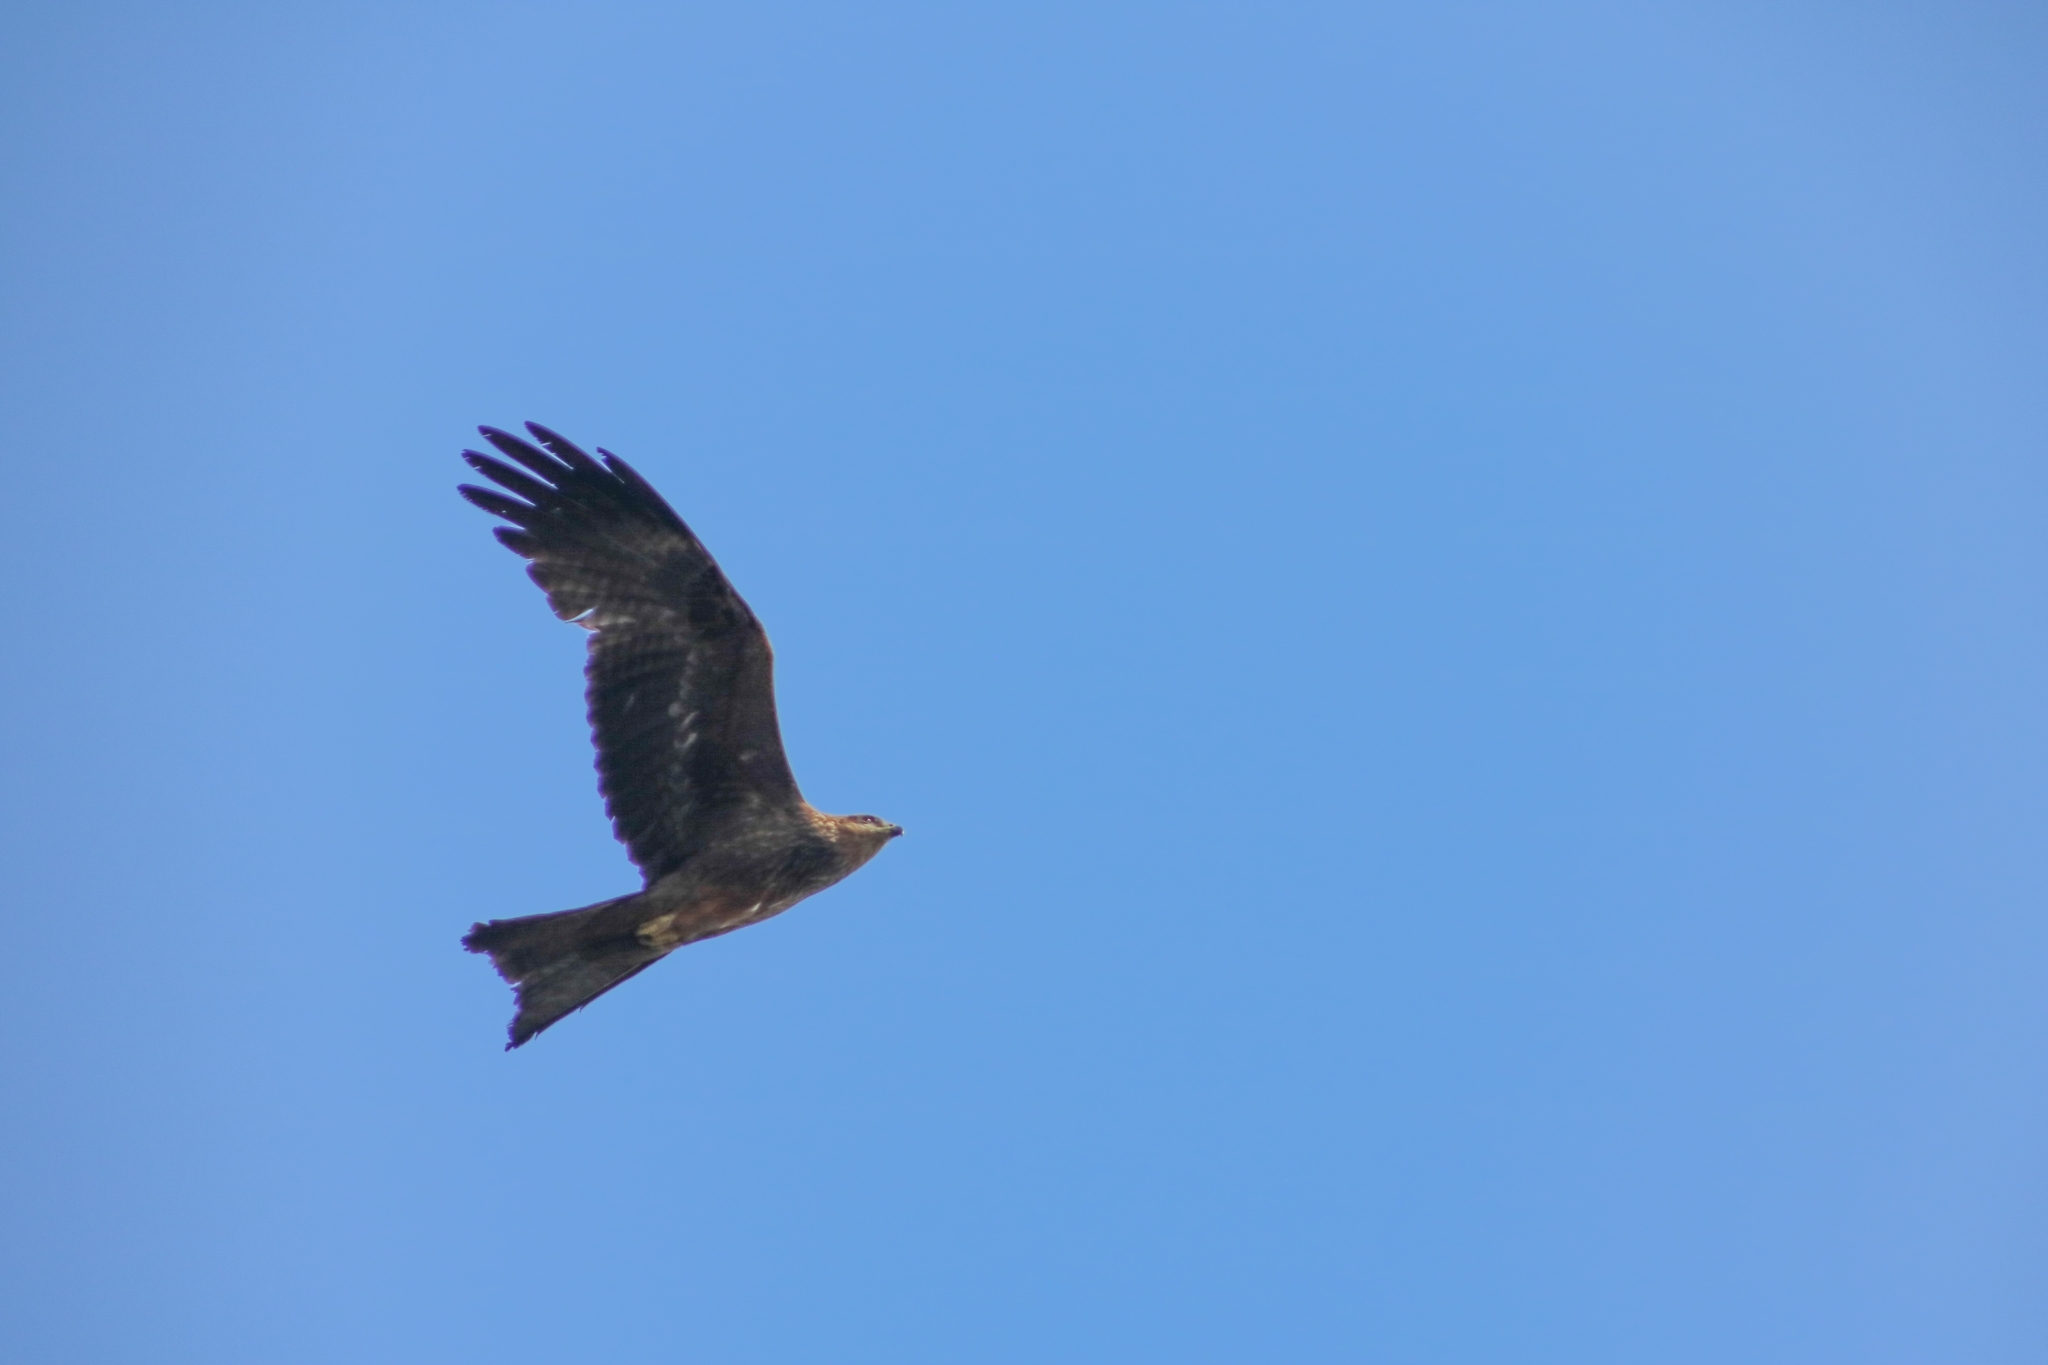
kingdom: Animalia
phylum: Chordata
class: Aves
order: Accipitriformes
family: Accipitridae
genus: Milvus
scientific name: Milvus migrans
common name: Black kite
